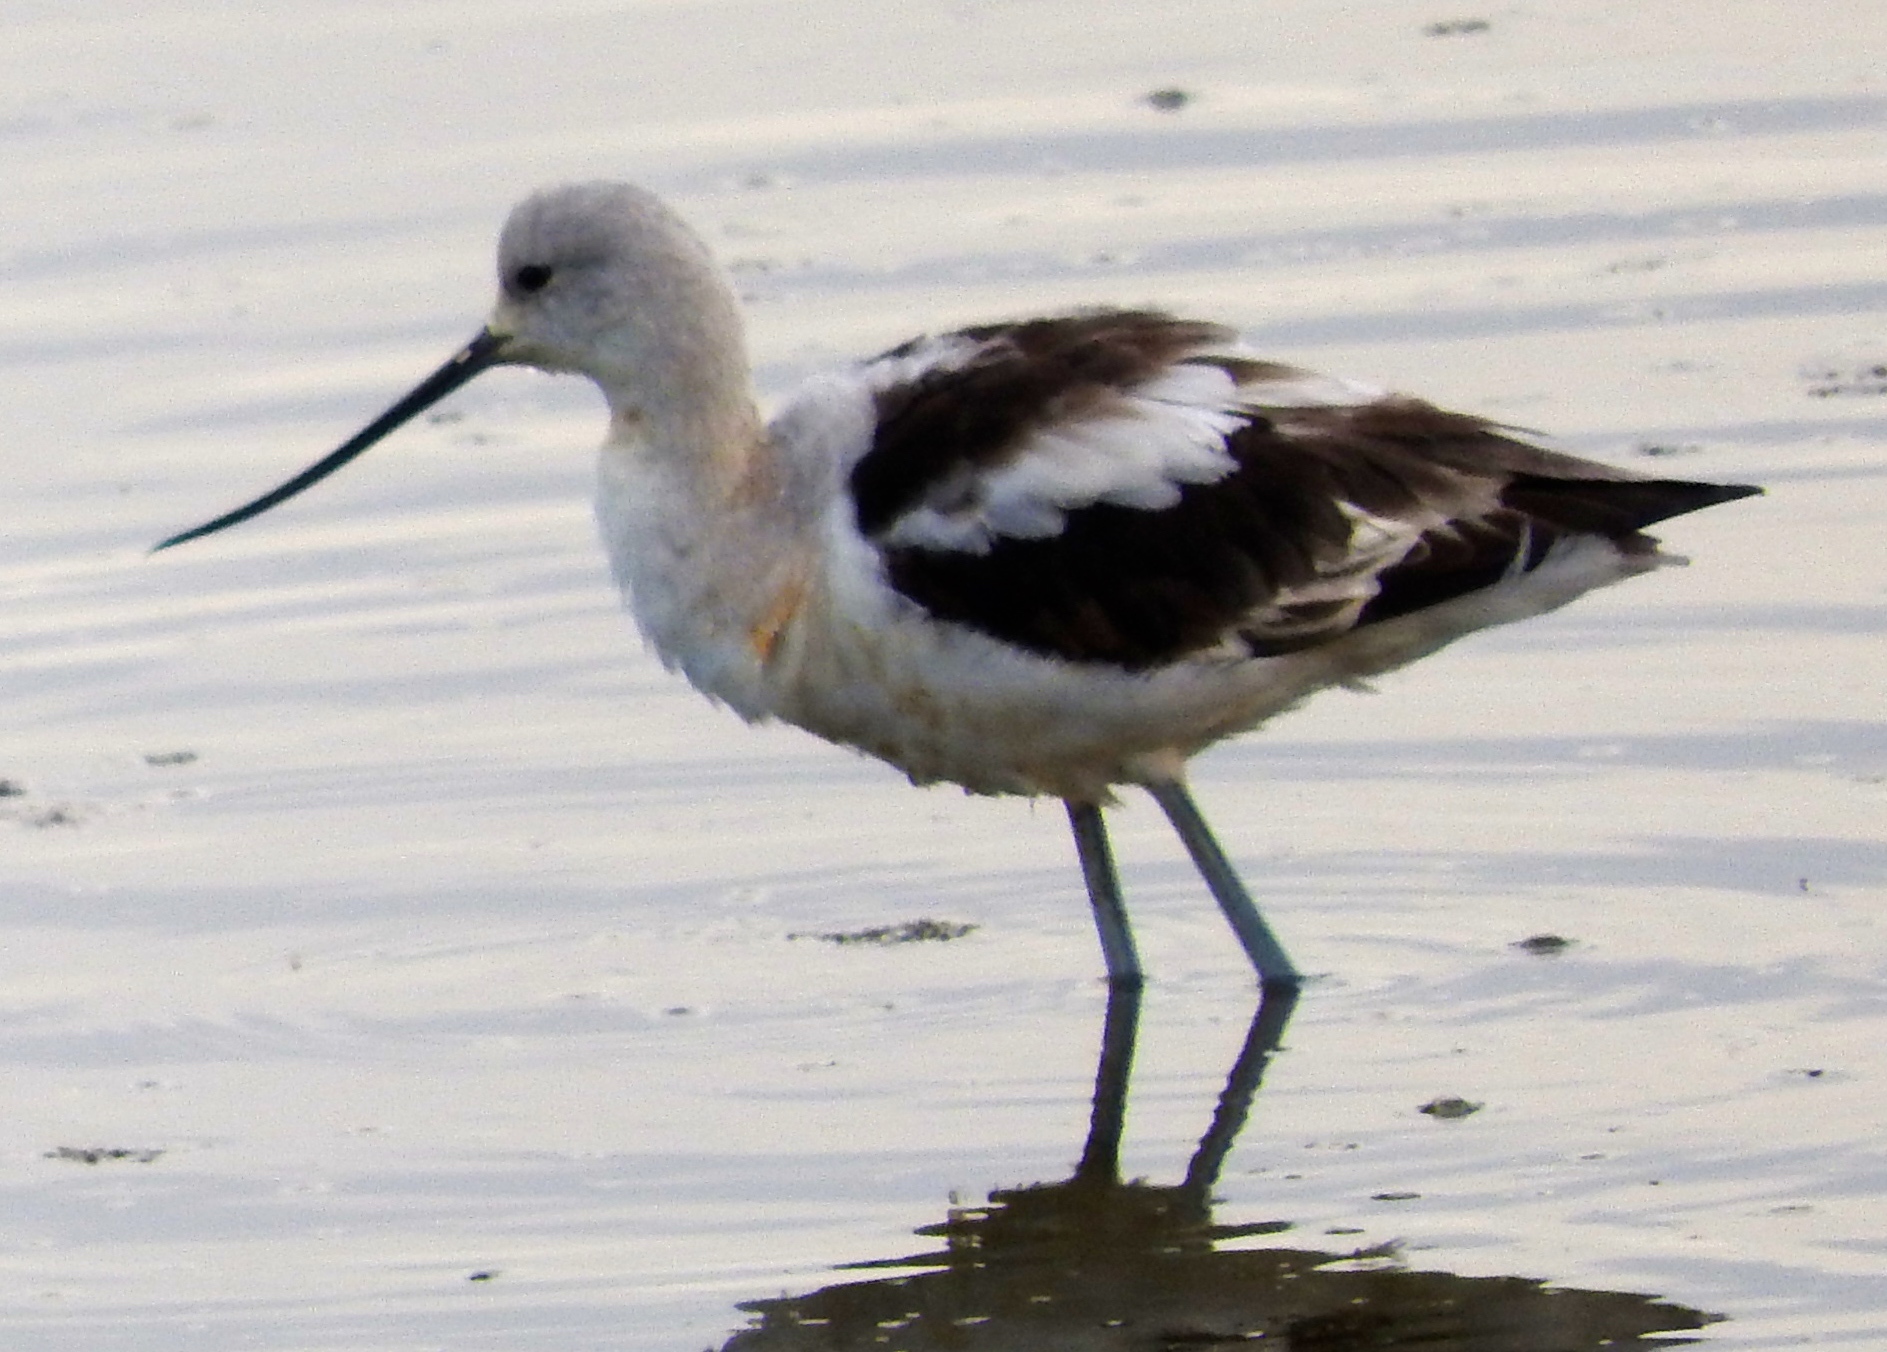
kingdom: Animalia
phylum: Chordata
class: Aves
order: Charadriiformes
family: Recurvirostridae
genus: Recurvirostra
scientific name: Recurvirostra americana
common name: American avocet
